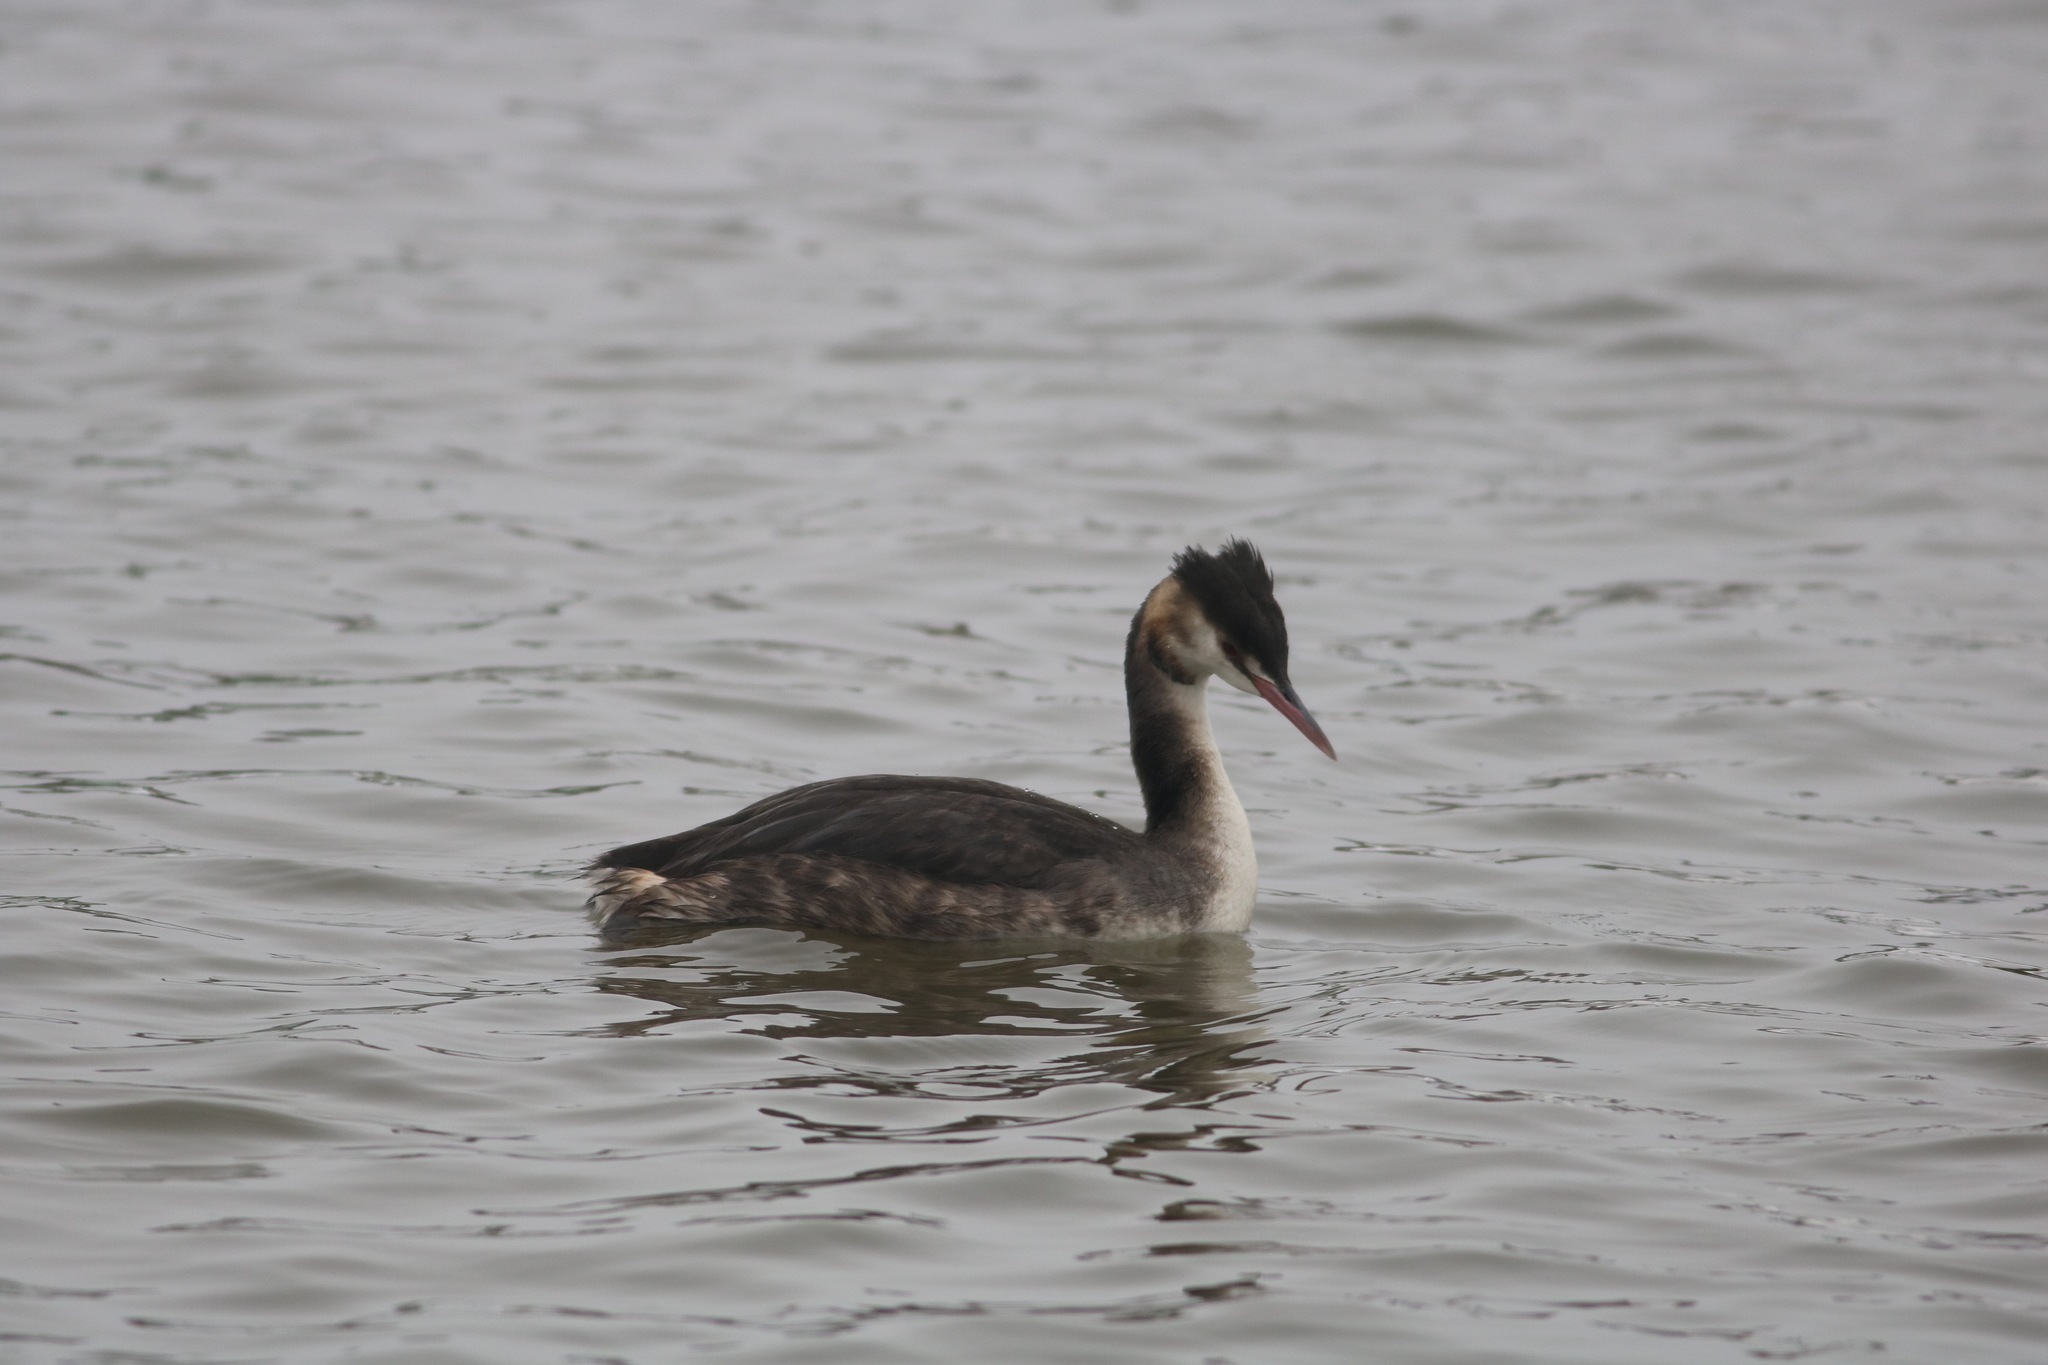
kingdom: Animalia
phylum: Chordata
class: Aves
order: Podicipediformes
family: Podicipedidae
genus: Podiceps
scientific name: Podiceps cristatus
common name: Great crested grebe
